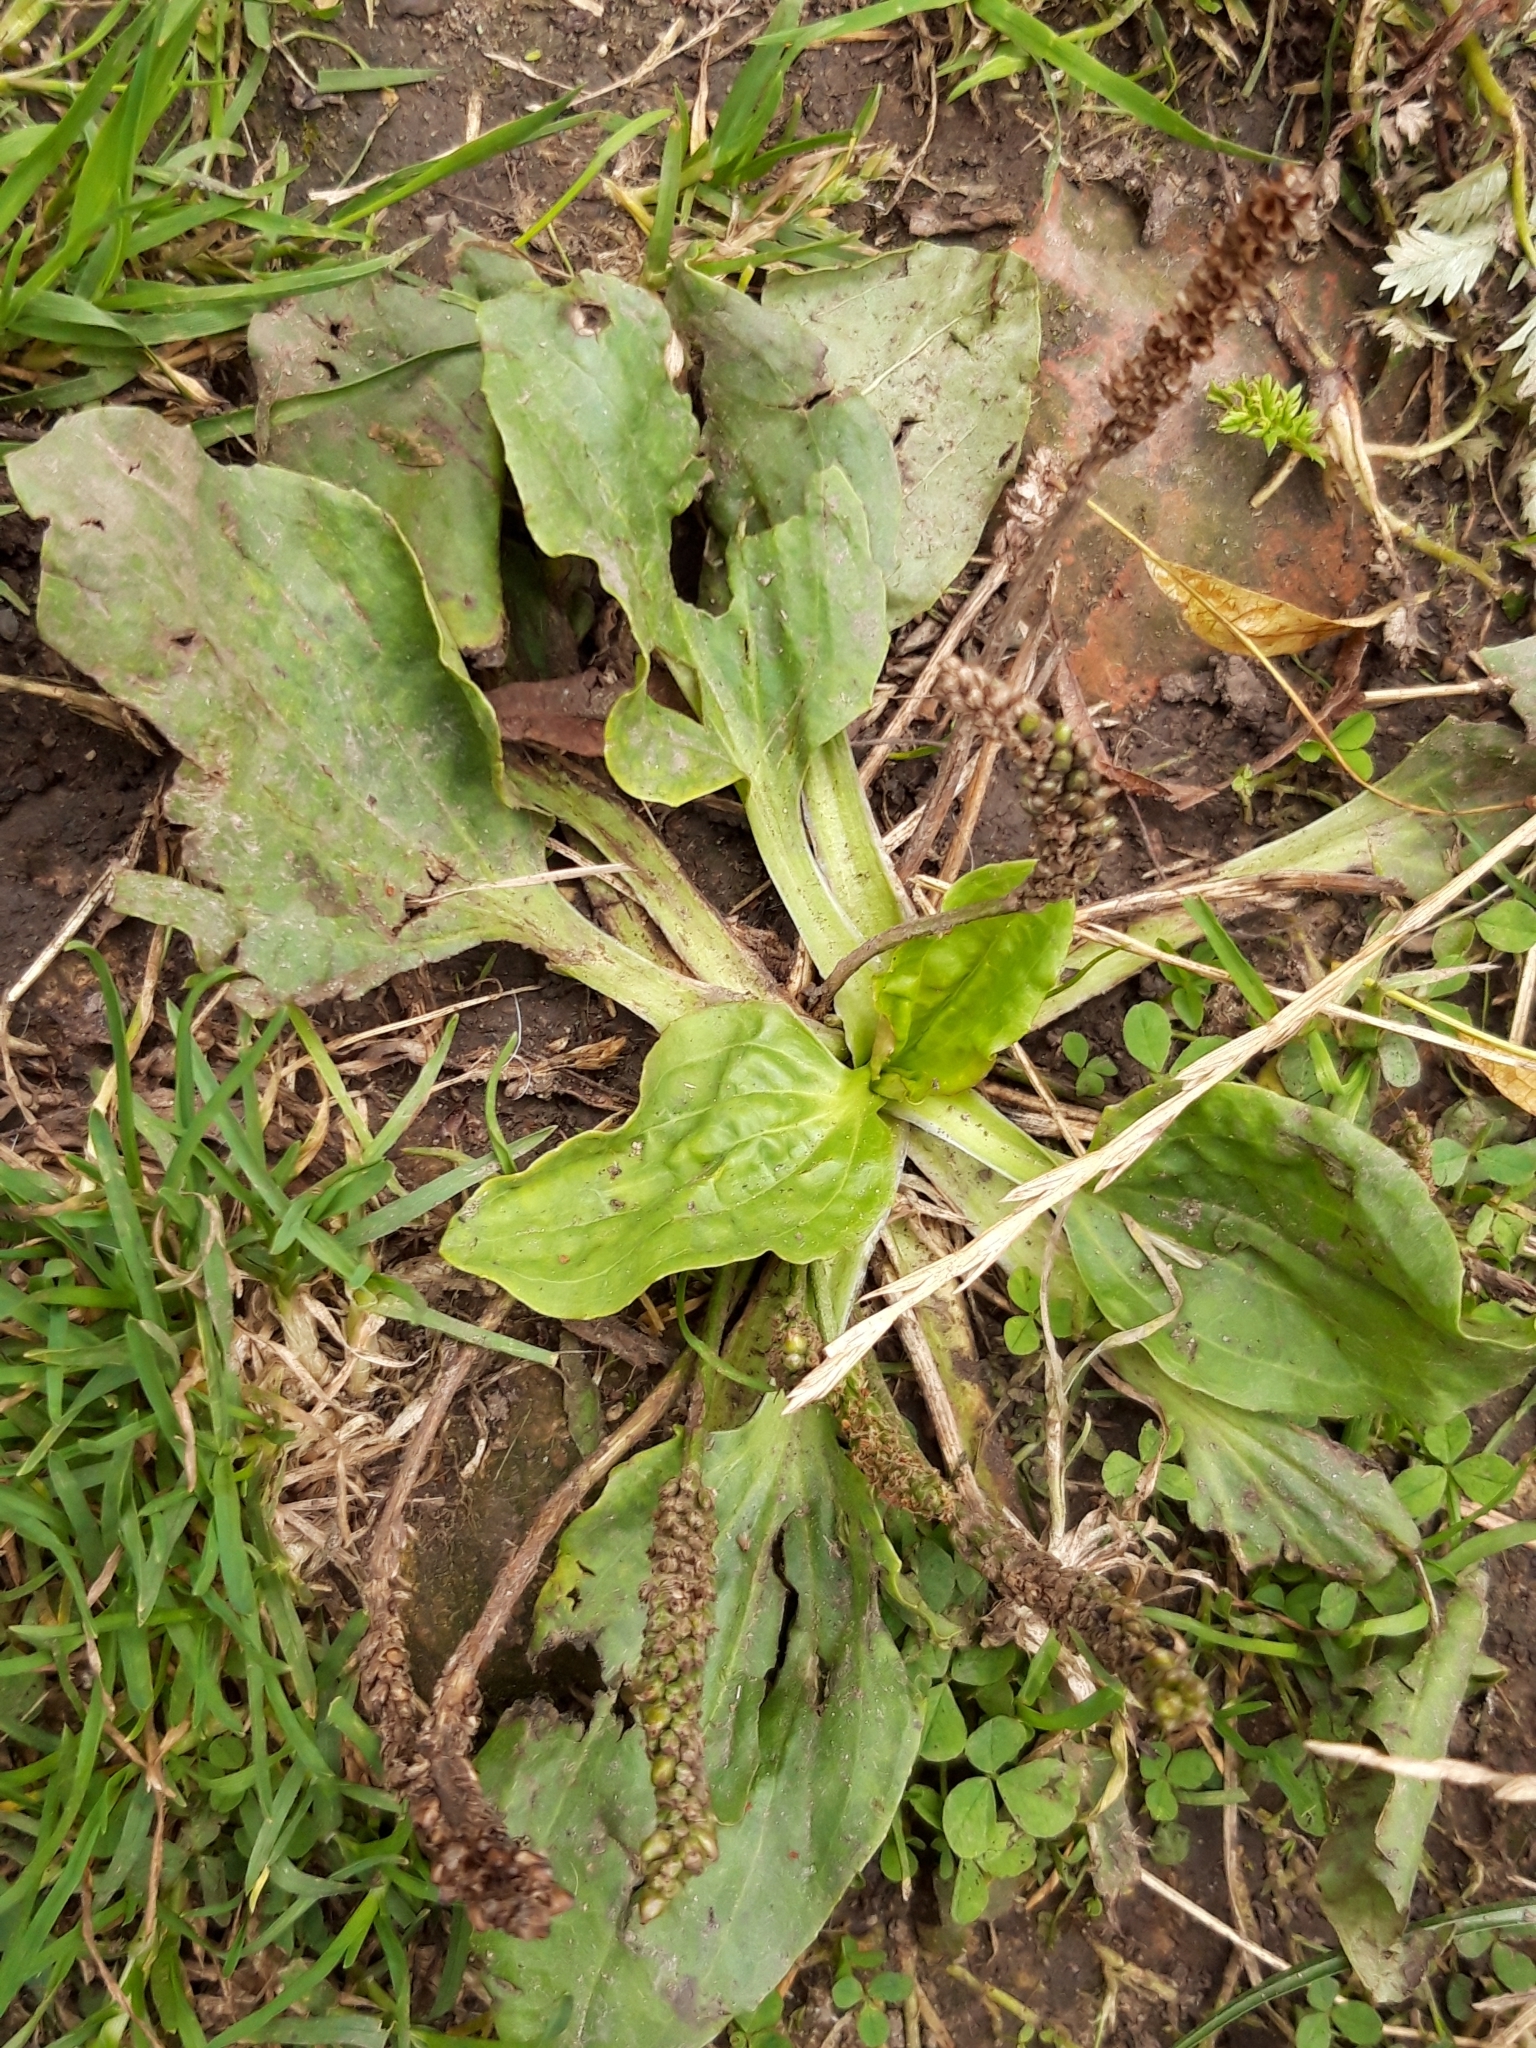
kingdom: Plantae
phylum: Tracheophyta
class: Magnoliopsida
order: Lamiales
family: Plantaginaceae
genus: Plantago
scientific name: Plantago major
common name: Common plantain
